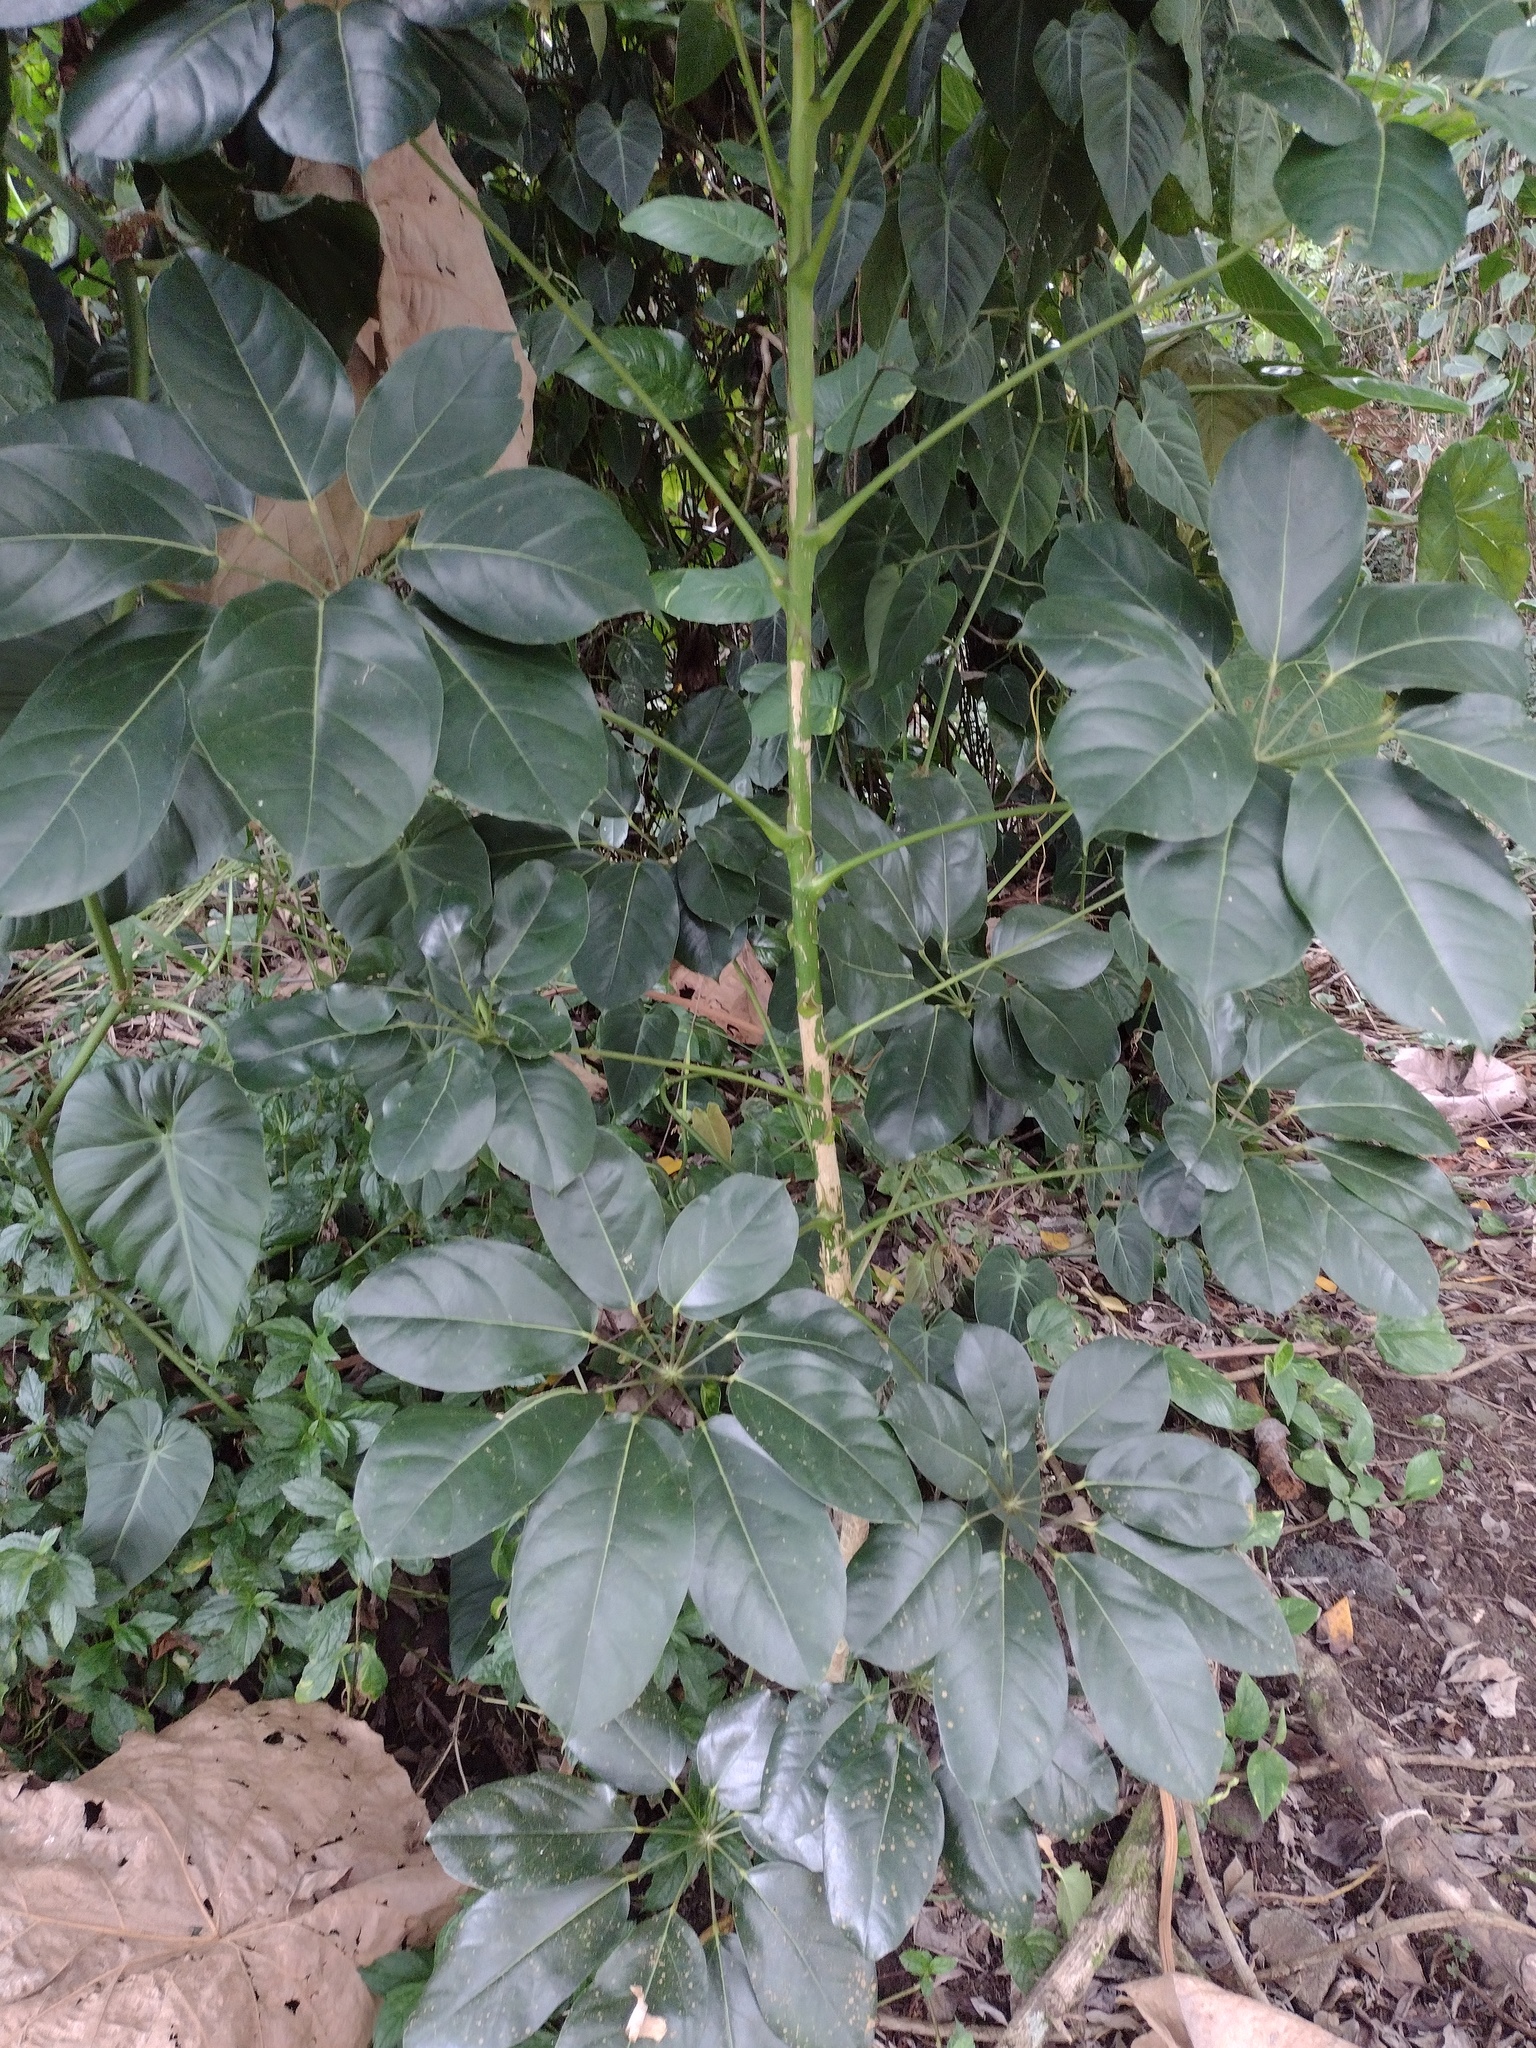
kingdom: Plantae
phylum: Tracheophyta
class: Magnoliopsida
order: Apiales
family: Araliaceae
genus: Heptapleurum
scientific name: Heptapleurum actinophyllum
